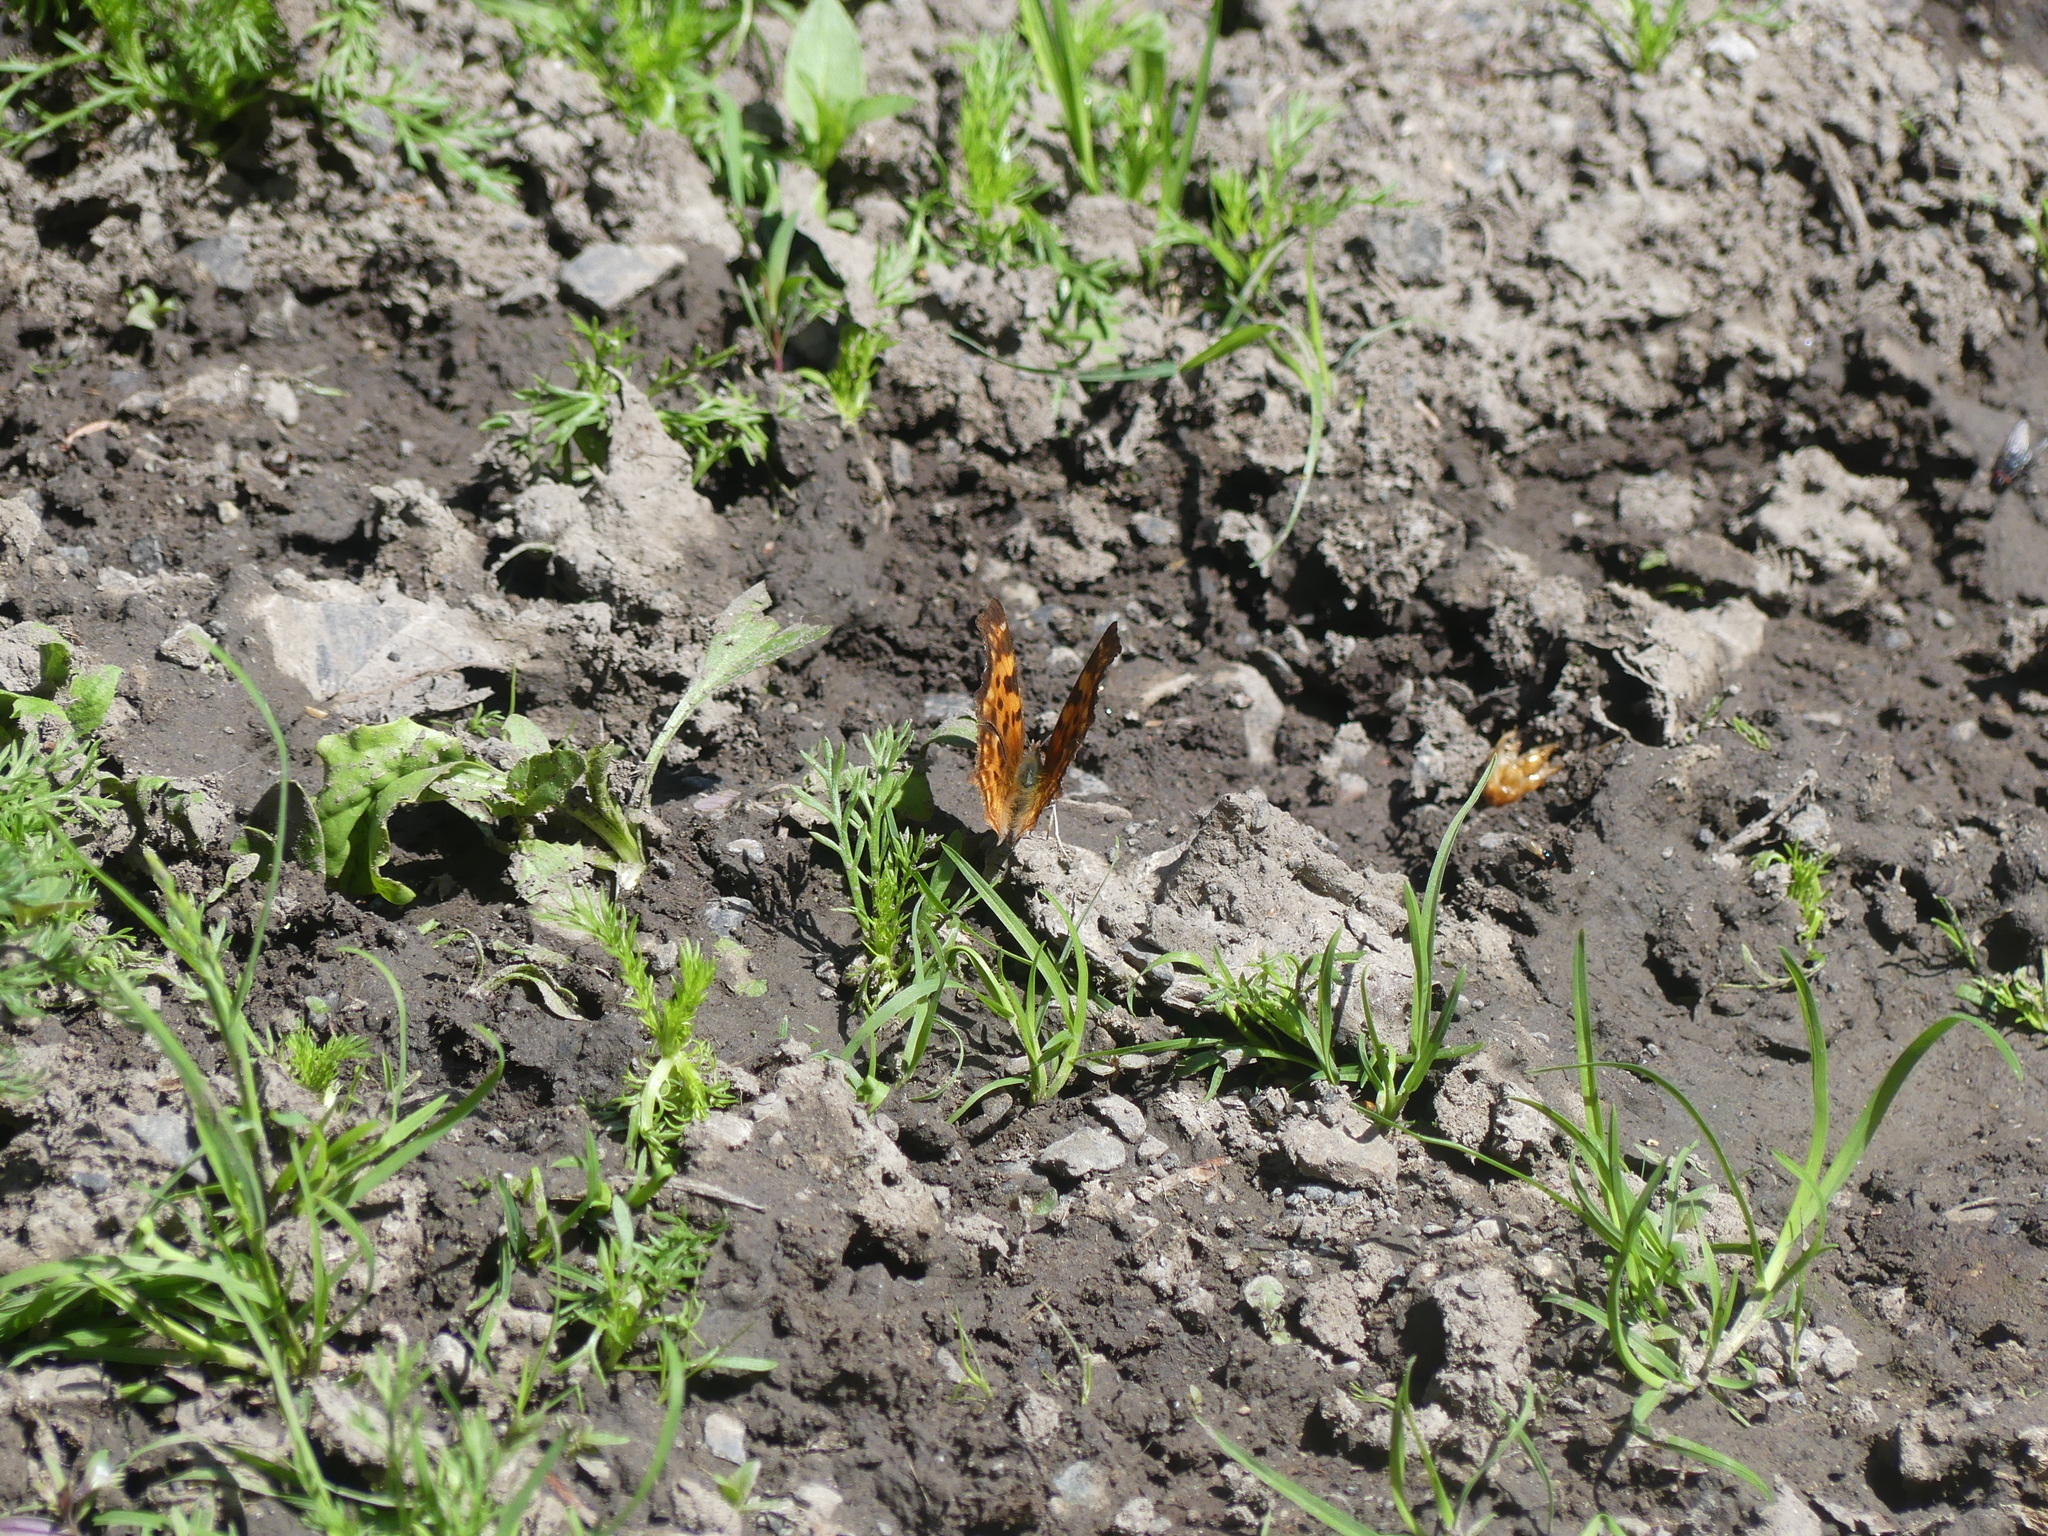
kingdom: Animalia
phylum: Arthropoda
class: Insecta
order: Lepidoptera
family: Nymphalidae
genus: Polygonia
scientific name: Polygonia satyrus
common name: Satyr angle wing
